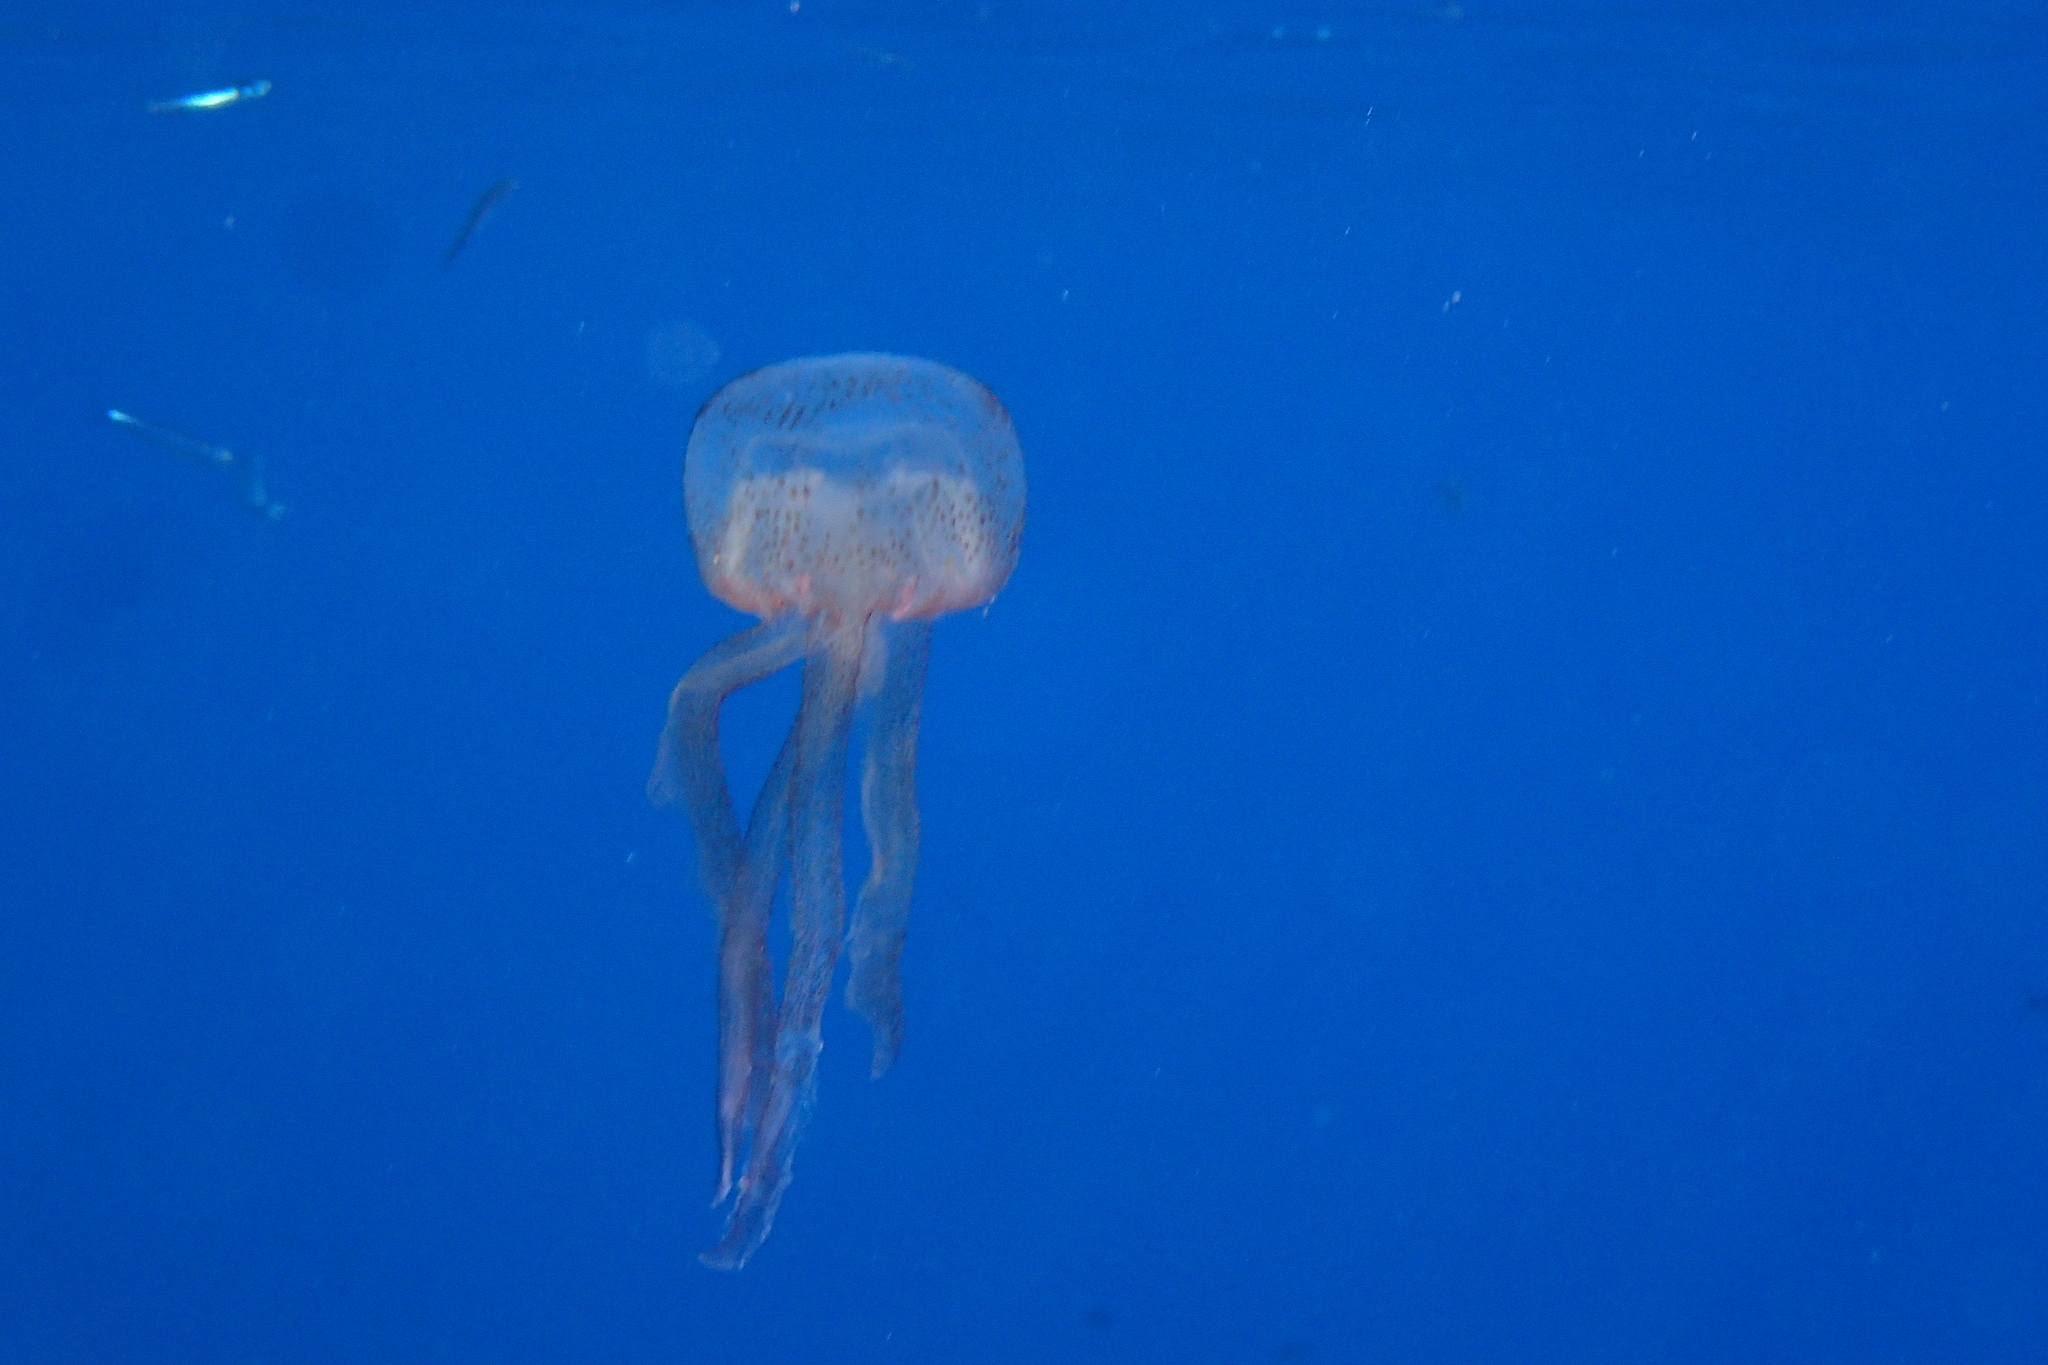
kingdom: Animalia
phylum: Cnidaria
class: Scyphozoa
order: Semaeostomeae
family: Pelagiidae
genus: Pelagia
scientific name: Pelagia noctiluca
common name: Mauve stinger
